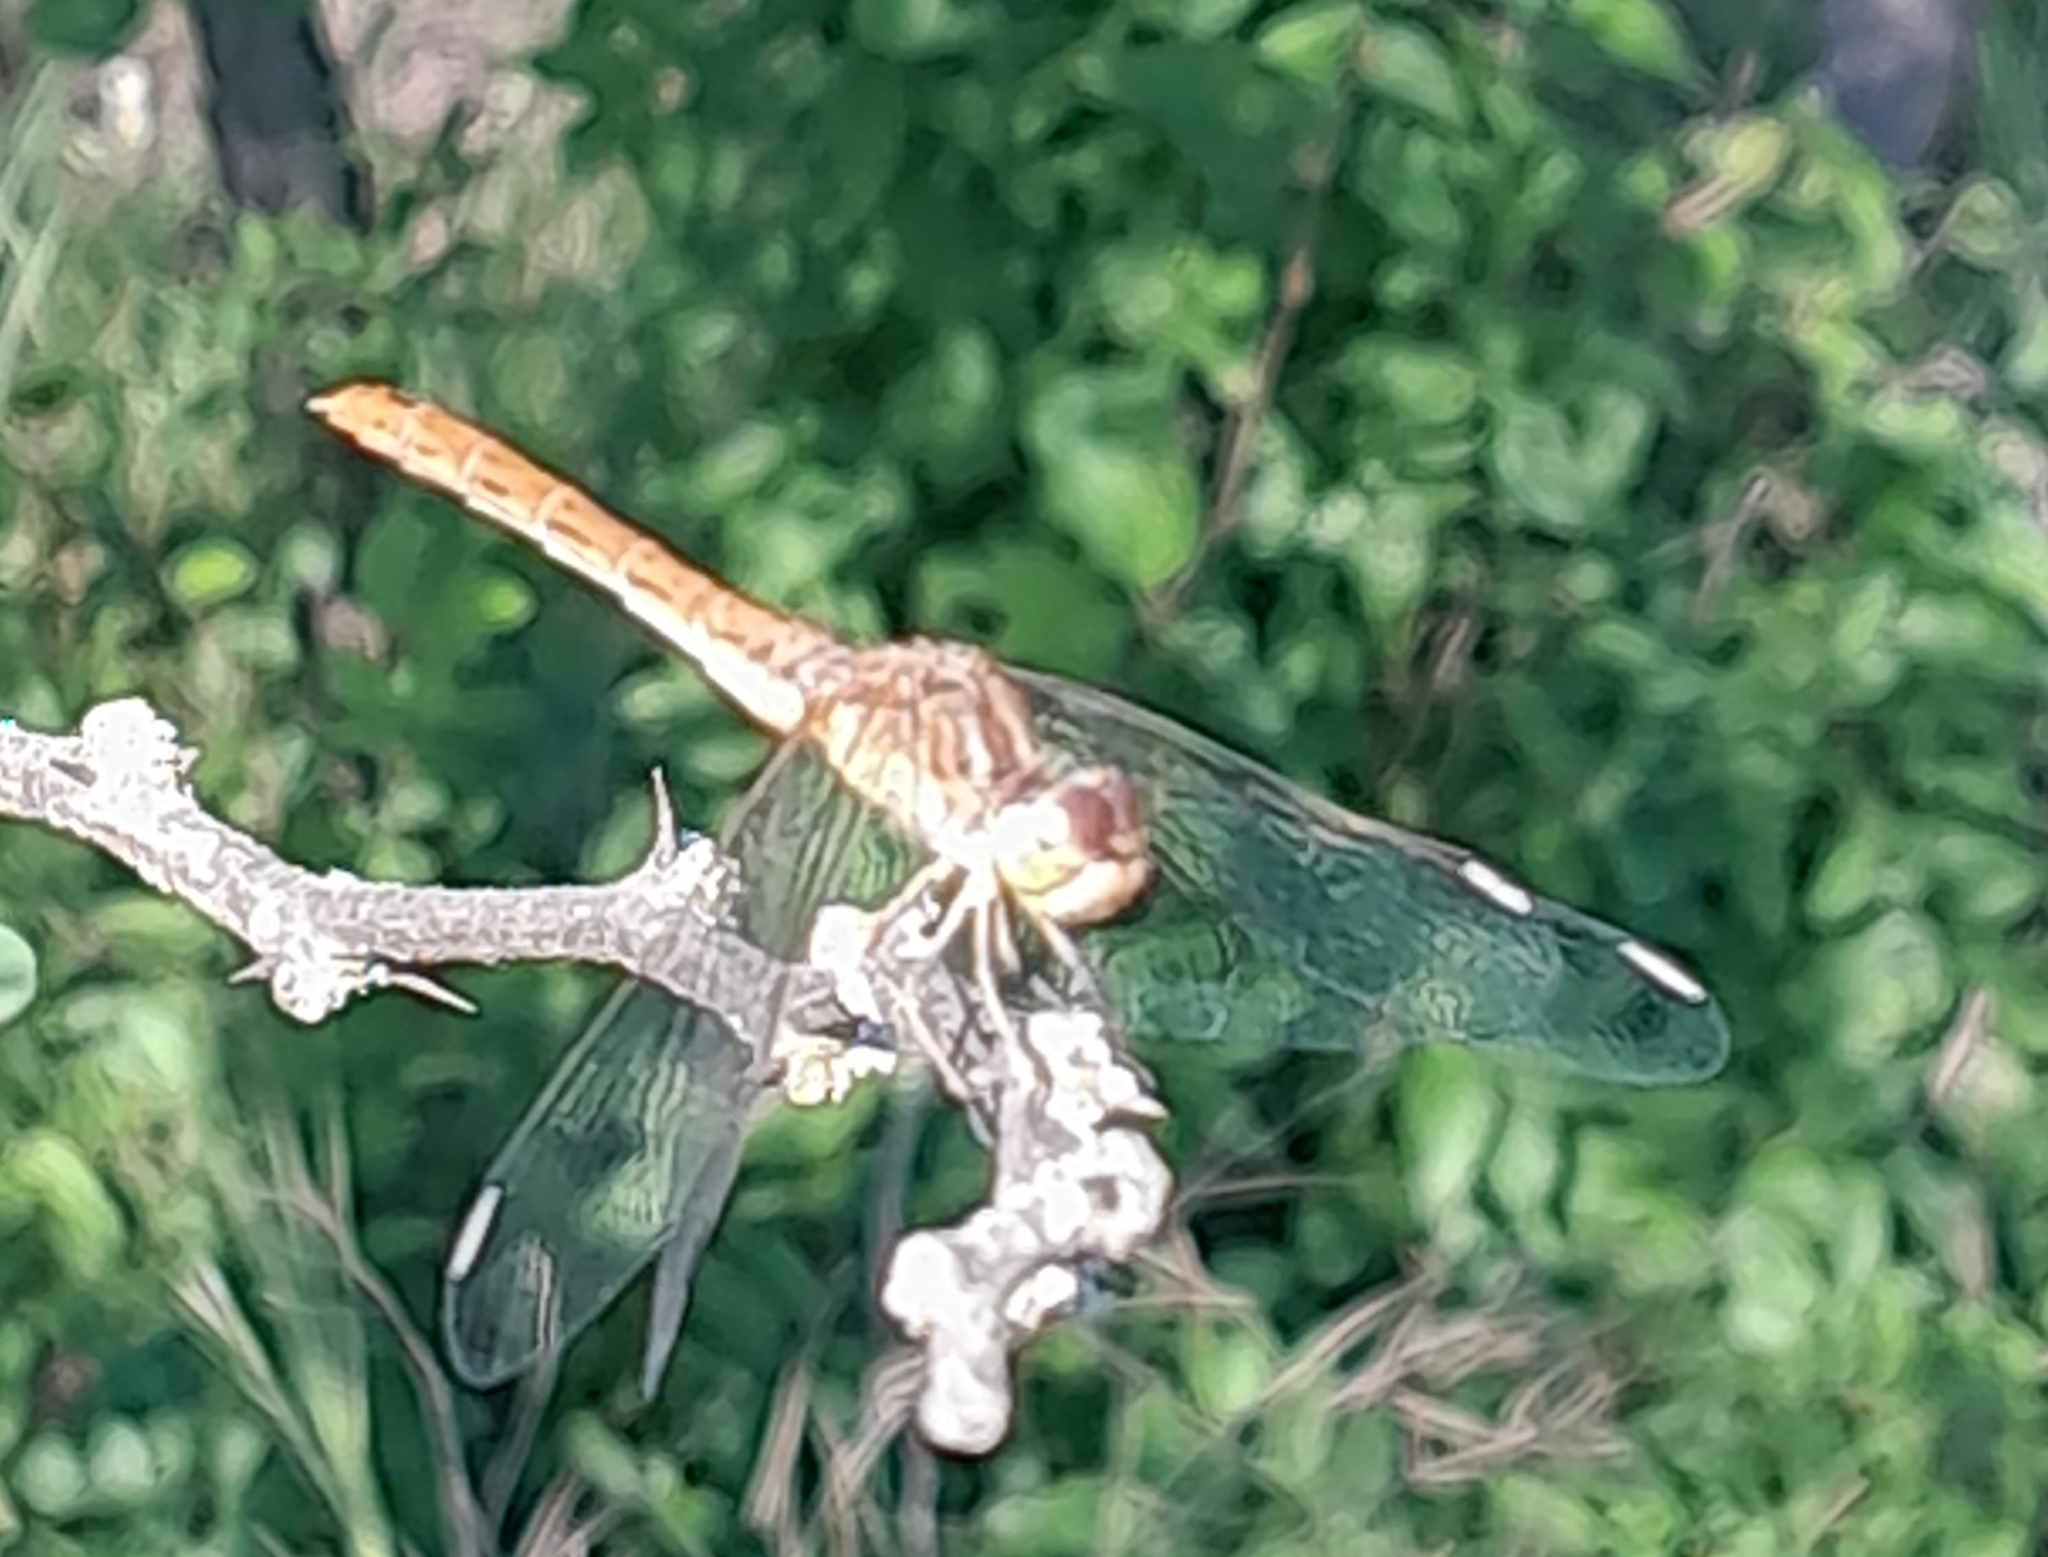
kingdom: Animalia
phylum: Arthropoda
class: Insecta
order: Odonata
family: Libellulidae
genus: Sympetrum
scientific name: Sympetrum meridionale
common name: Southern darter
